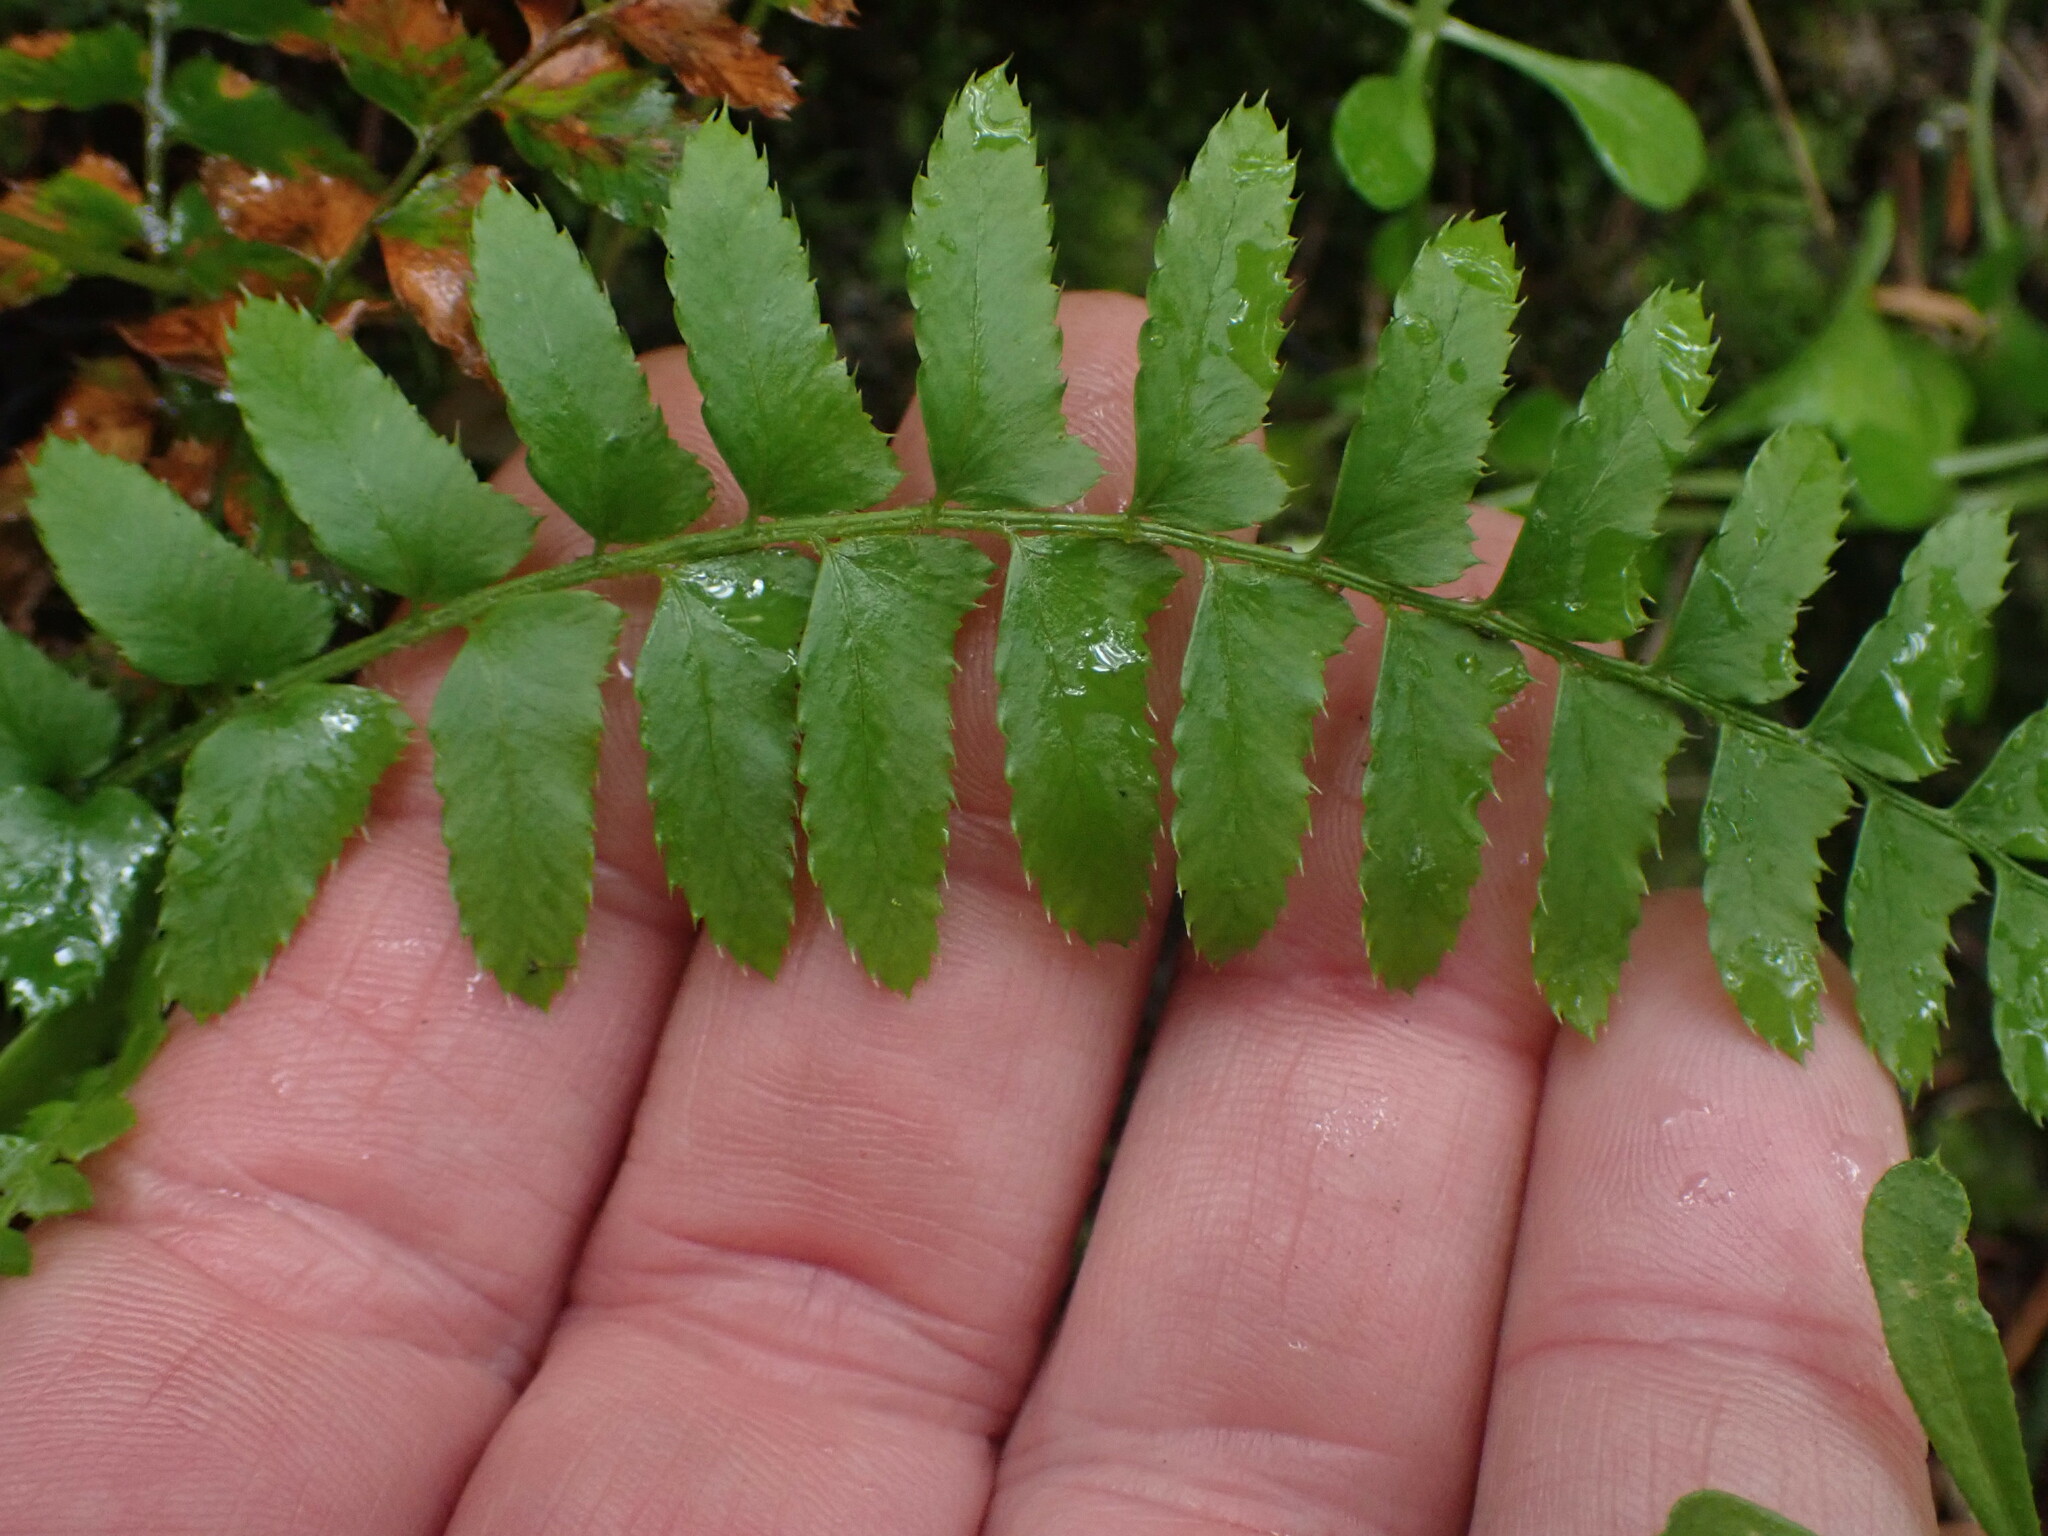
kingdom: Plantae
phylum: Tracheophyta
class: Polypodiopsida
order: Polypodiales
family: Dryopteridaceae
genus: Polystichum
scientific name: Polystichum munitum
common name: Western sword-fern
